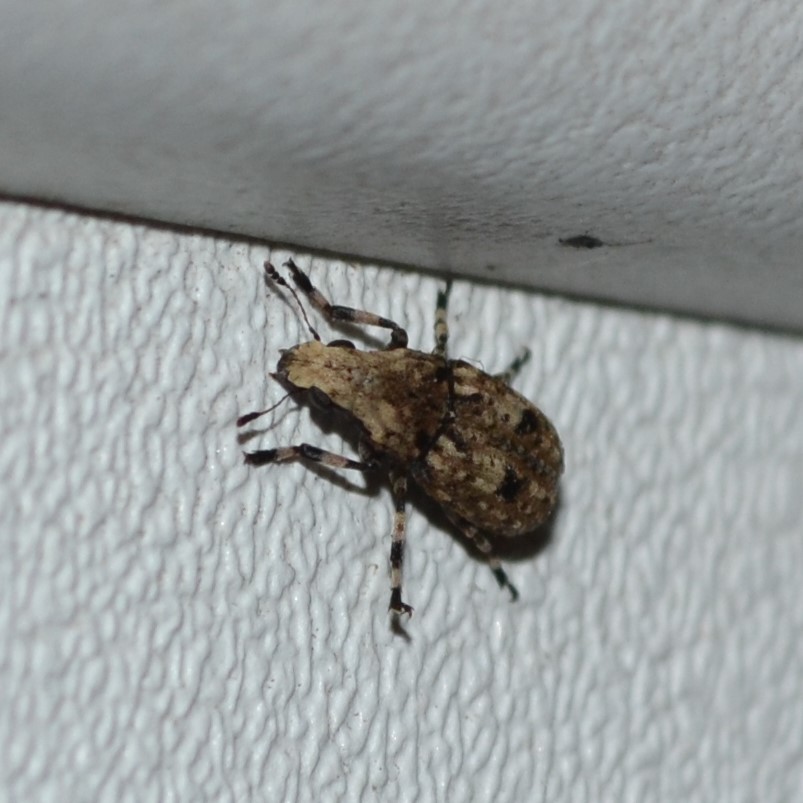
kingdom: Animalia
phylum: Arthropoda
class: Insecta
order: Coleoptera
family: Anthribidae
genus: Euparius
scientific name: Euparius marmoreus
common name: Marbled fungus weevil
